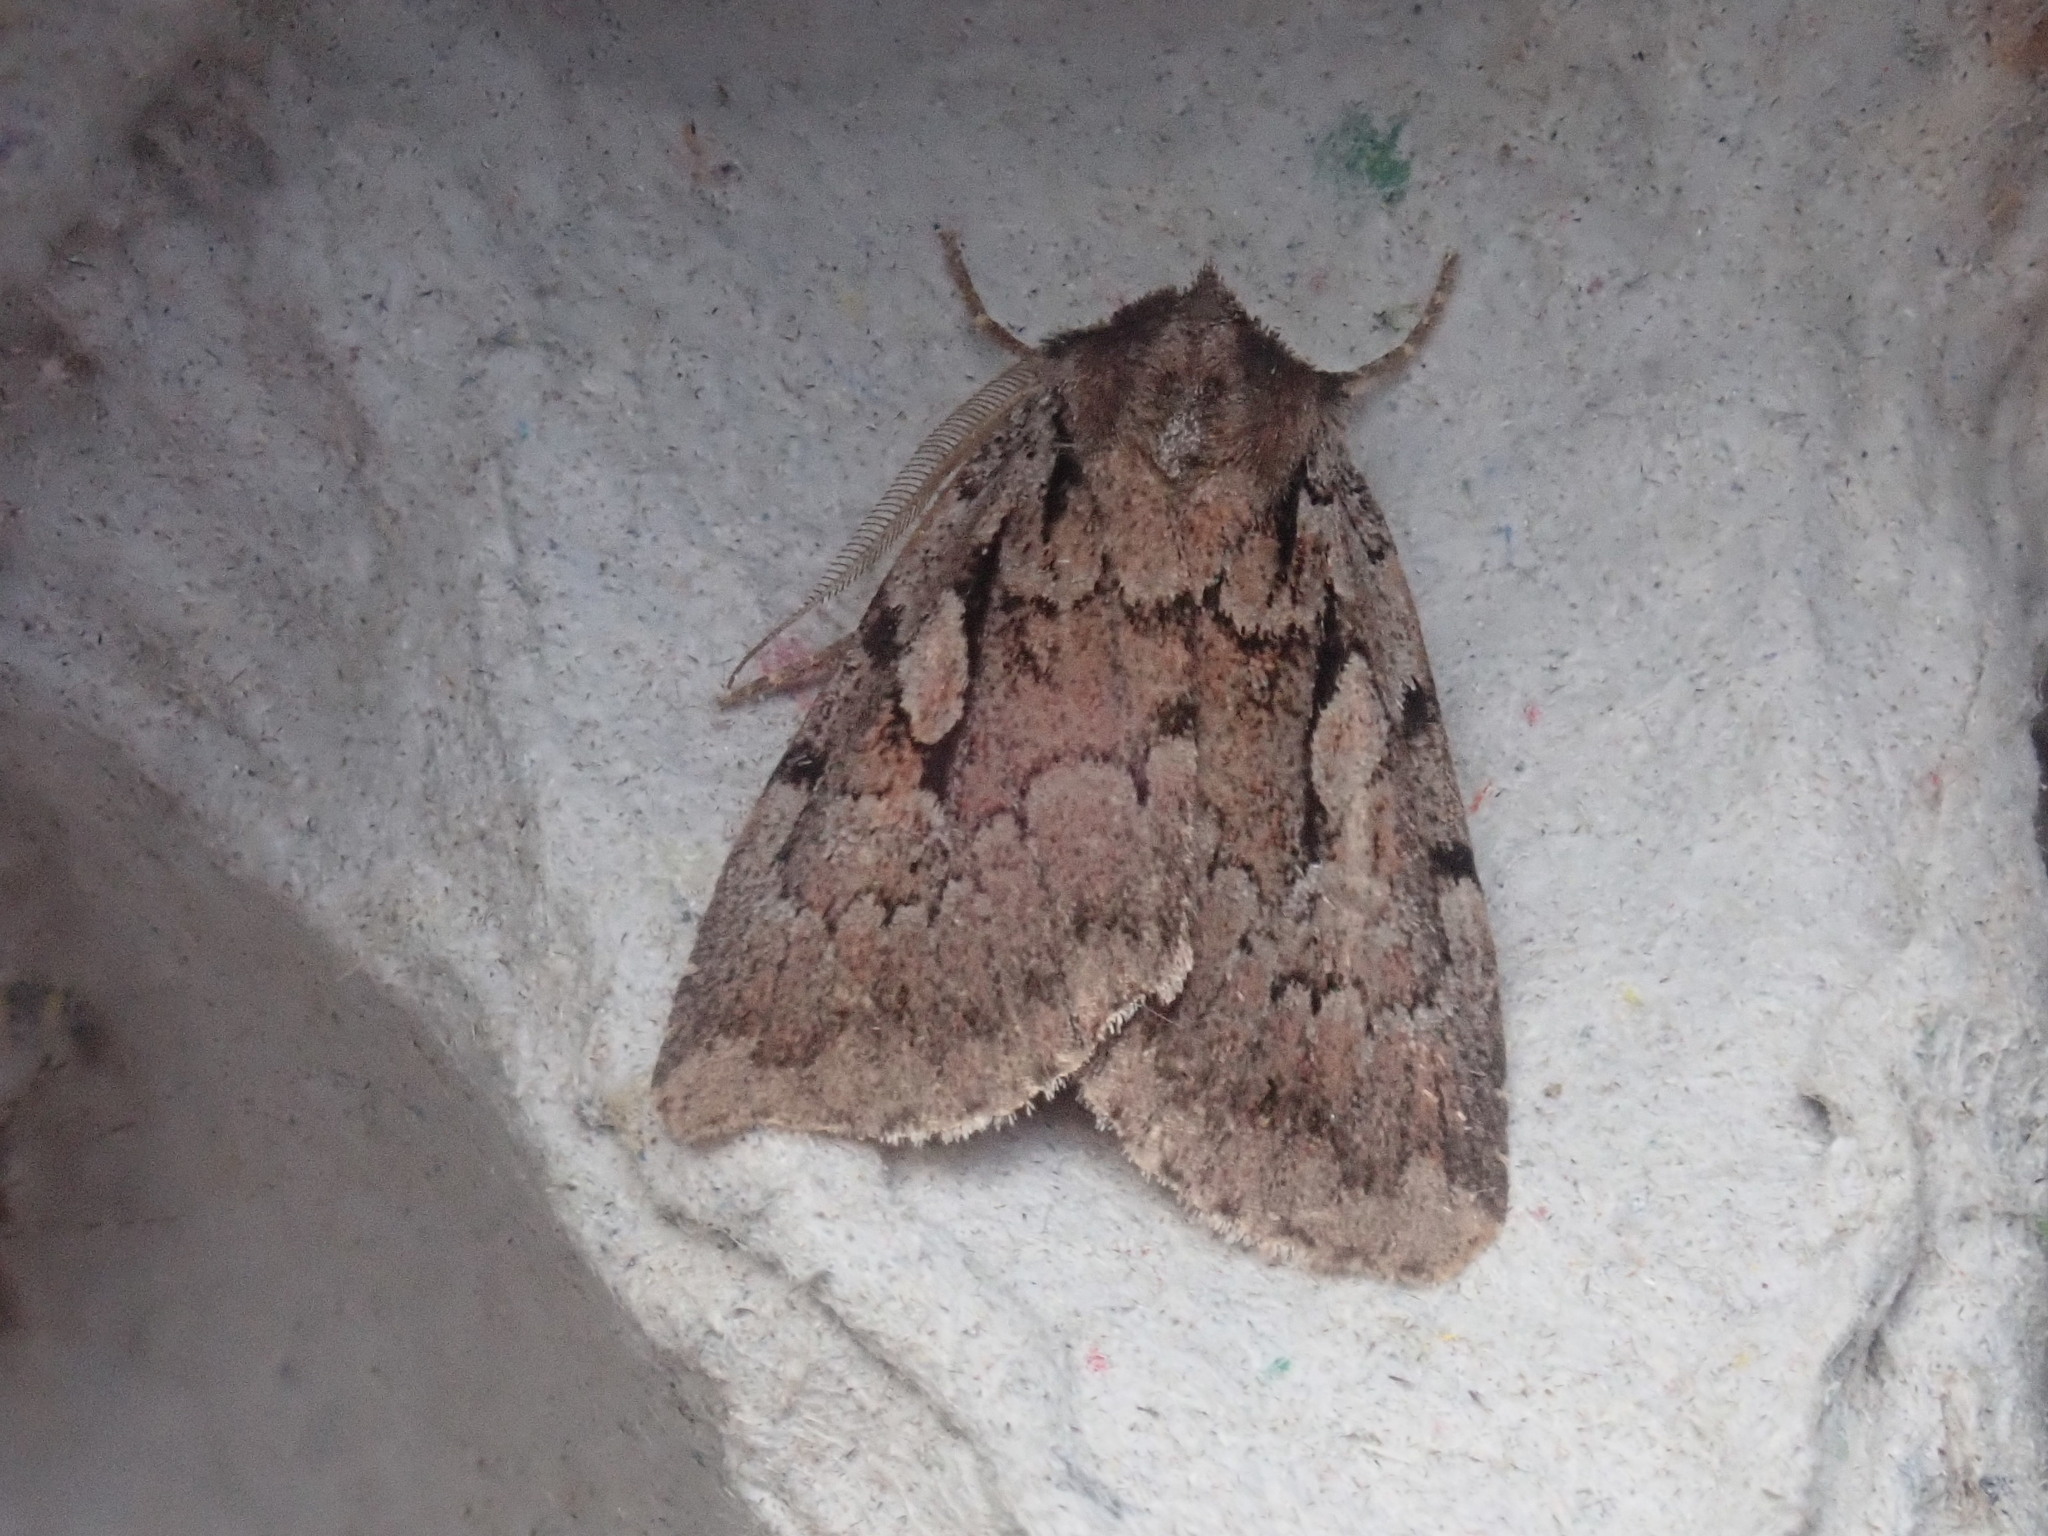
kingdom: Animalia
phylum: Arthropoda
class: Insecta
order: Lepidoptera
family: Noctuidae
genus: Xestia
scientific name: Xestia badicollis
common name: Northern variable dart
